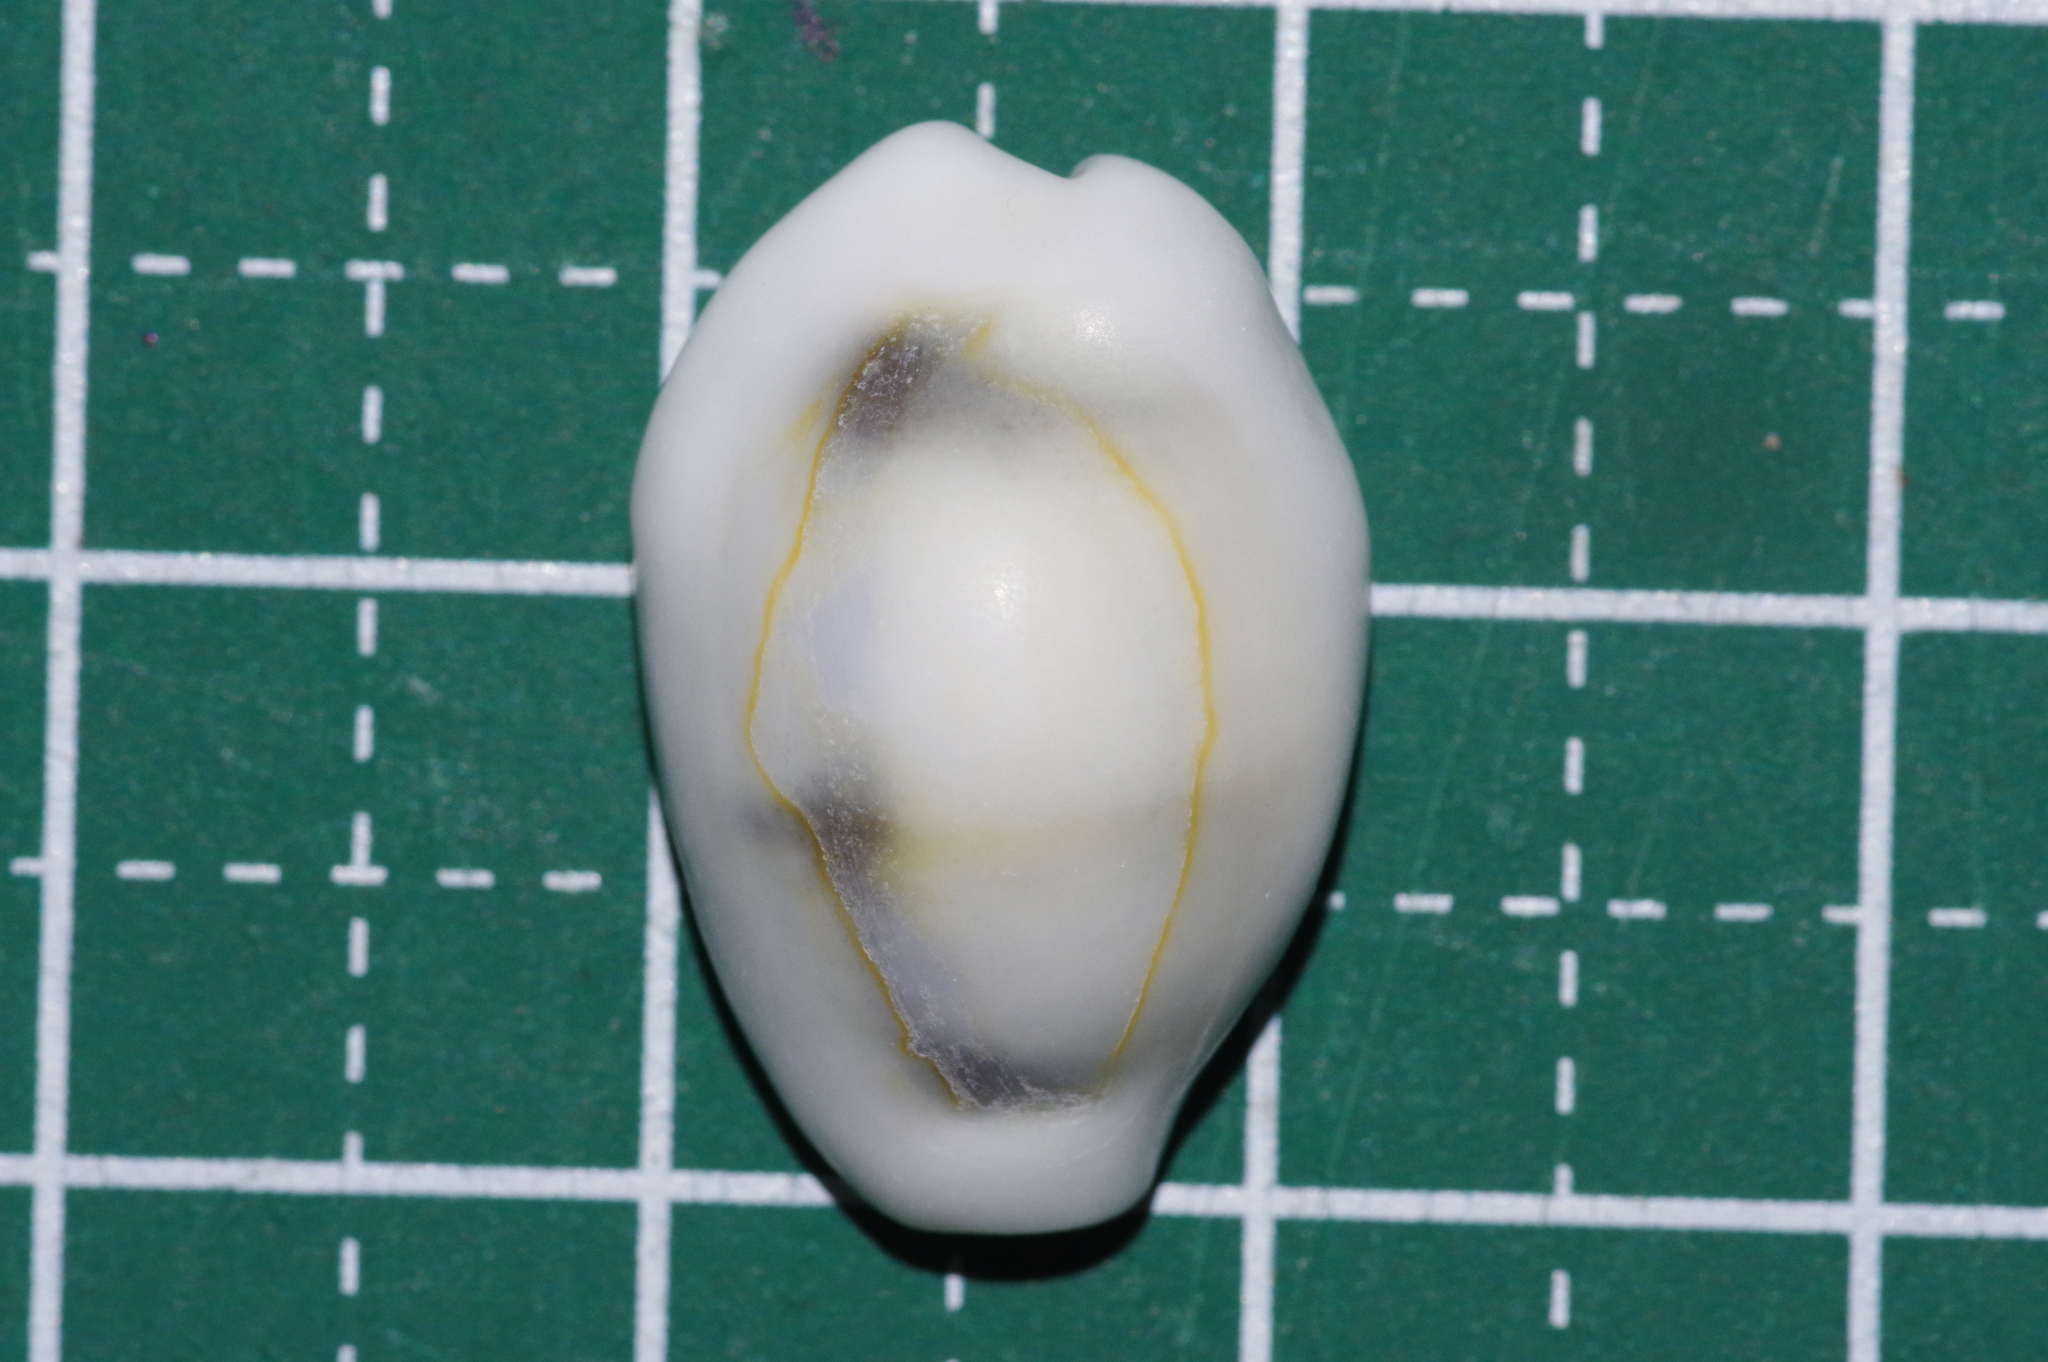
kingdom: Animalia
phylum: Mollusca
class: Gastropoda
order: Littorinimorpha
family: Cypraeidae
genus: Monetaria
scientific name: Monetaria moneta
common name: Money cowrie
